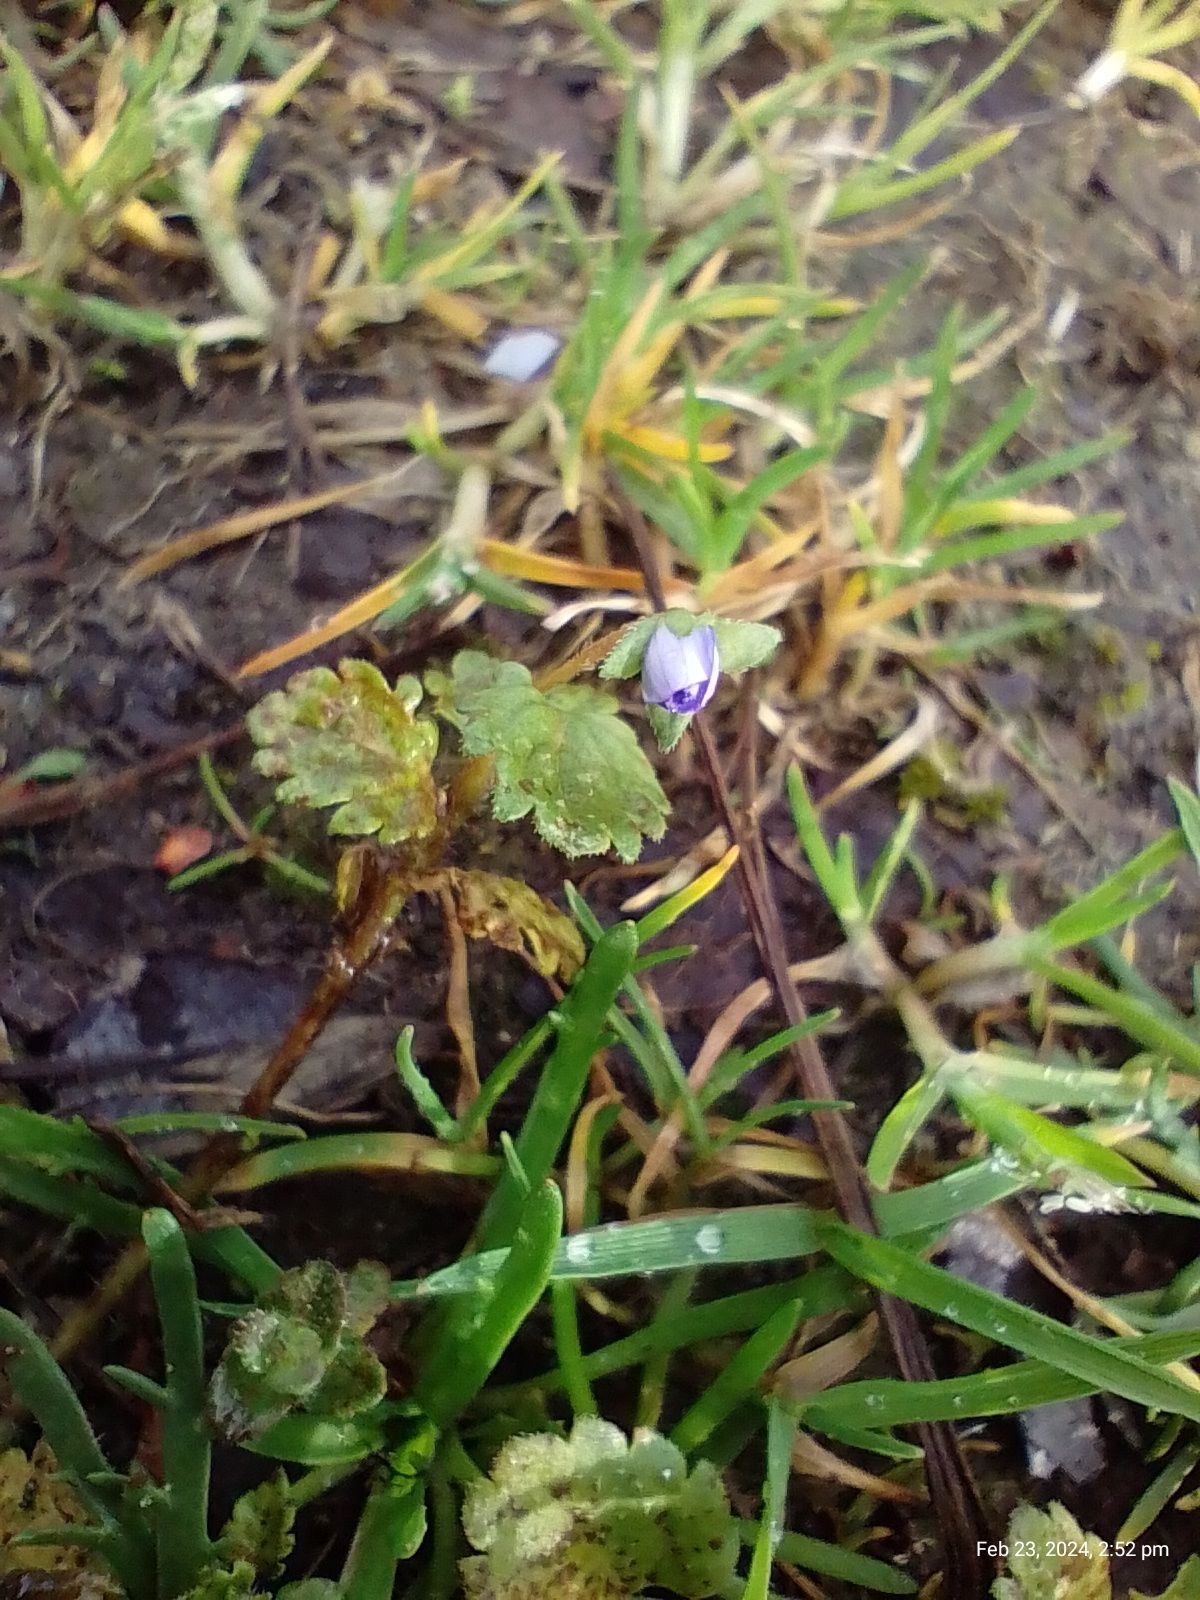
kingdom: Plantae
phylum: Tracheophyta
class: Magnoliopsida
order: Lamiales
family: Plantaginaceae
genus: Veronica
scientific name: Veronica persica
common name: Common field-speedwell
